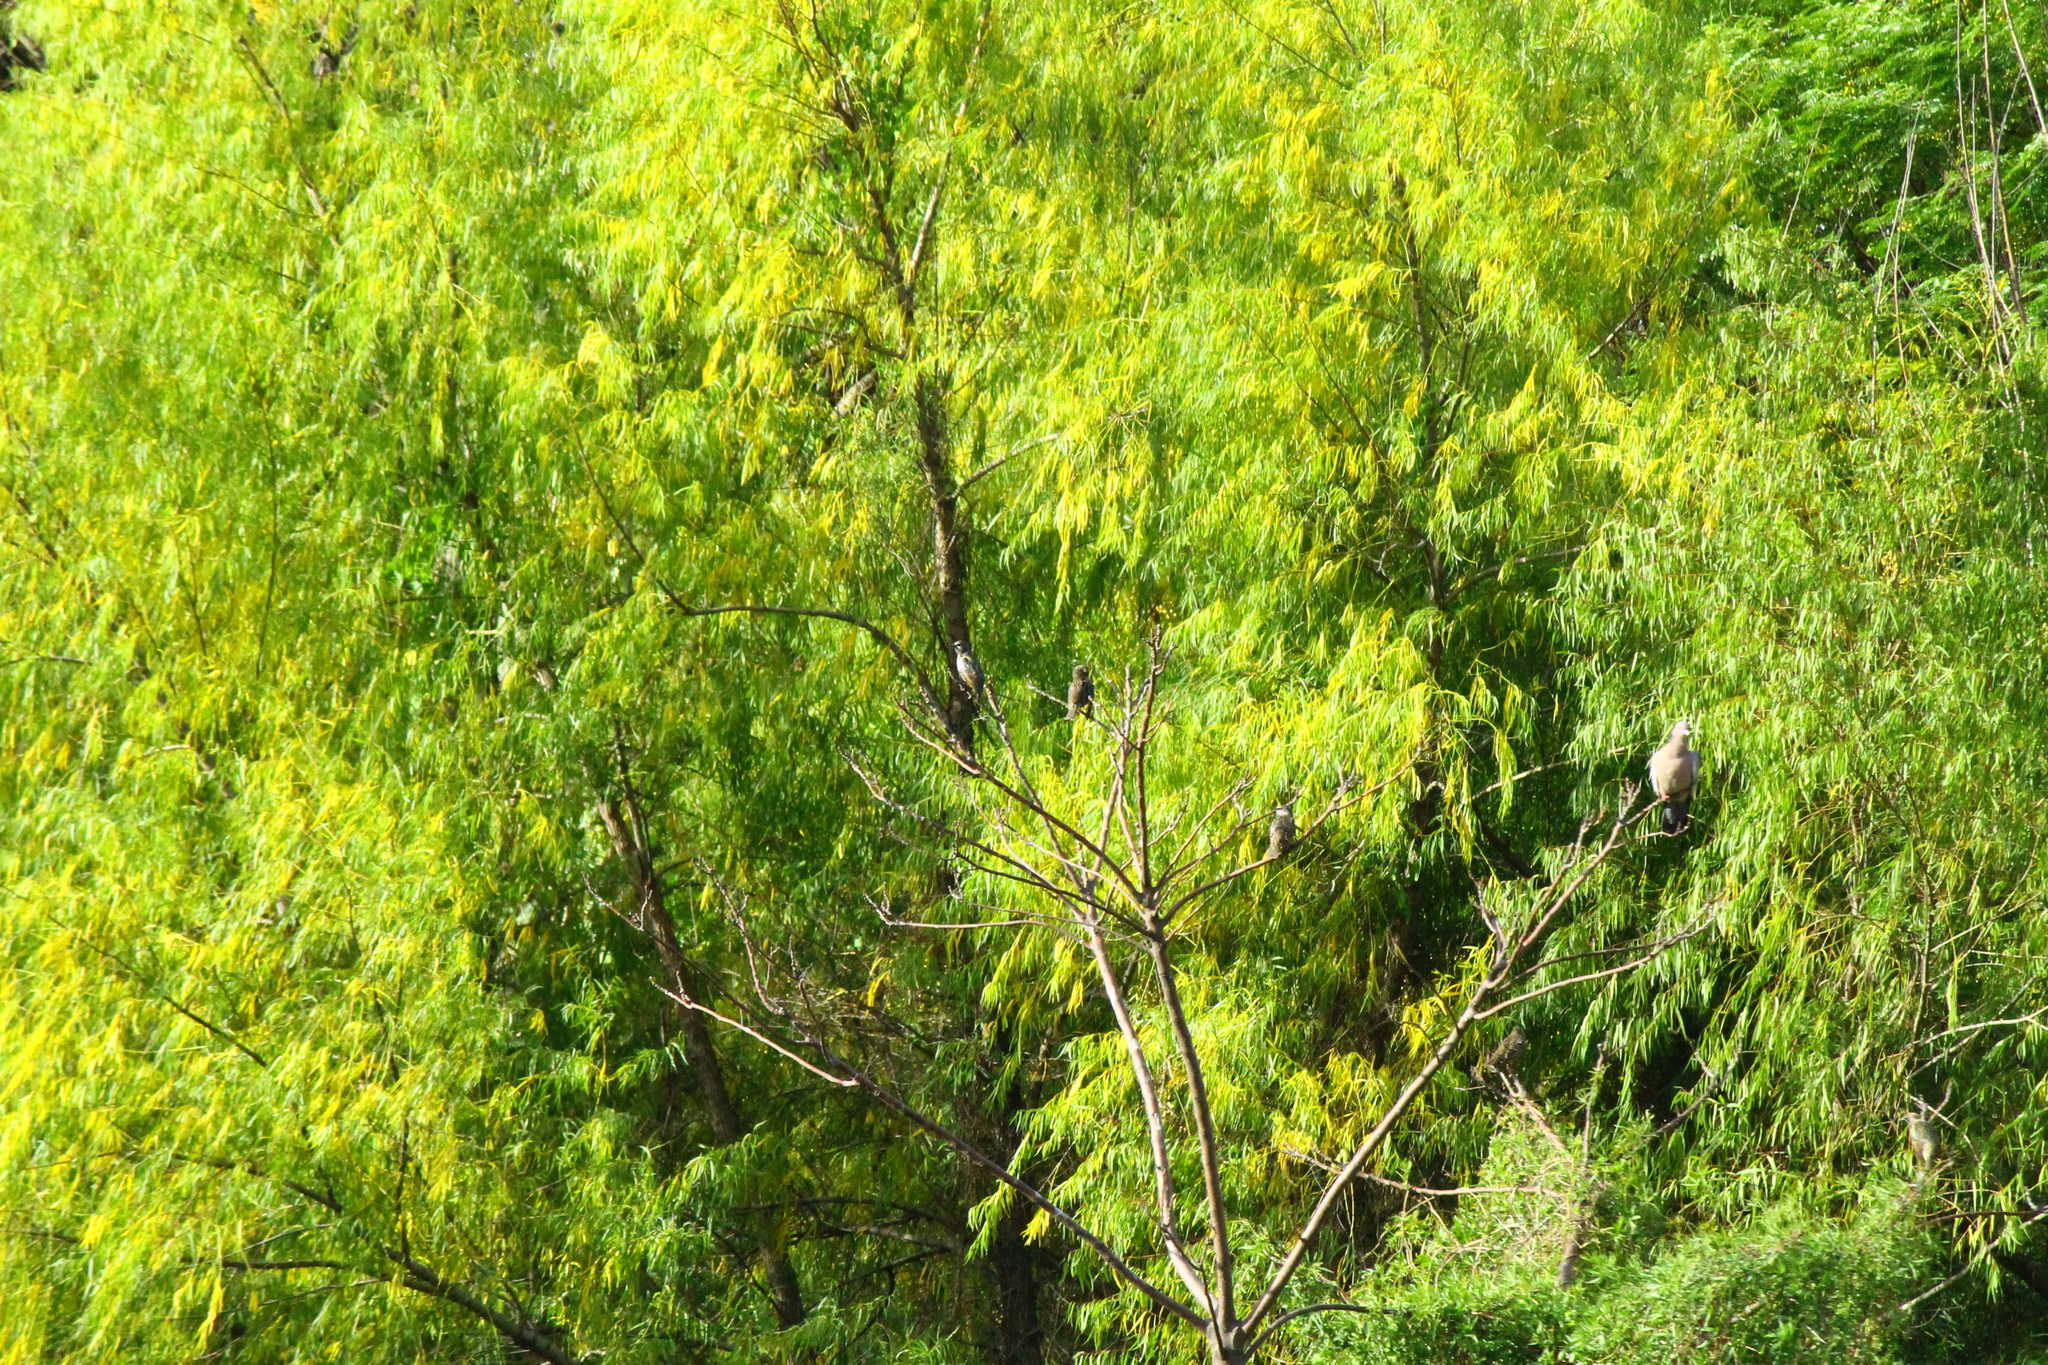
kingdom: Animalia
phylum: Chordata
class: Aves
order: Passeriformes
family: Sturnidae
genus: Sturnus
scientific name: Sturnus vulgaris
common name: Common starling
